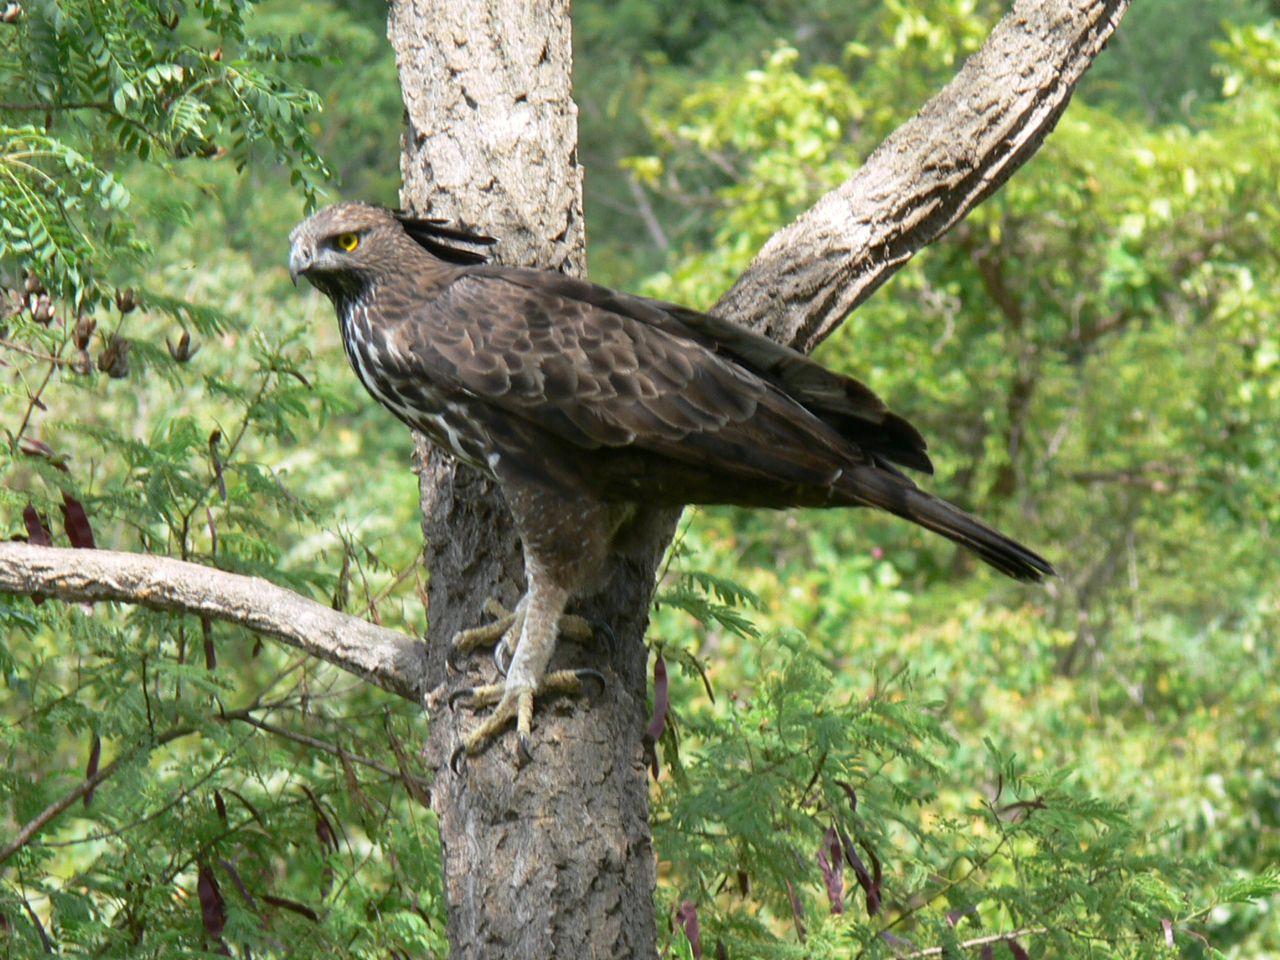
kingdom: Animalia
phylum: Chordata
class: Aves
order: Accipitriformes
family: Accipitridae
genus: Nisaetus
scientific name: Nisaetus cirrhatus
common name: Changeable hawk-eagle
